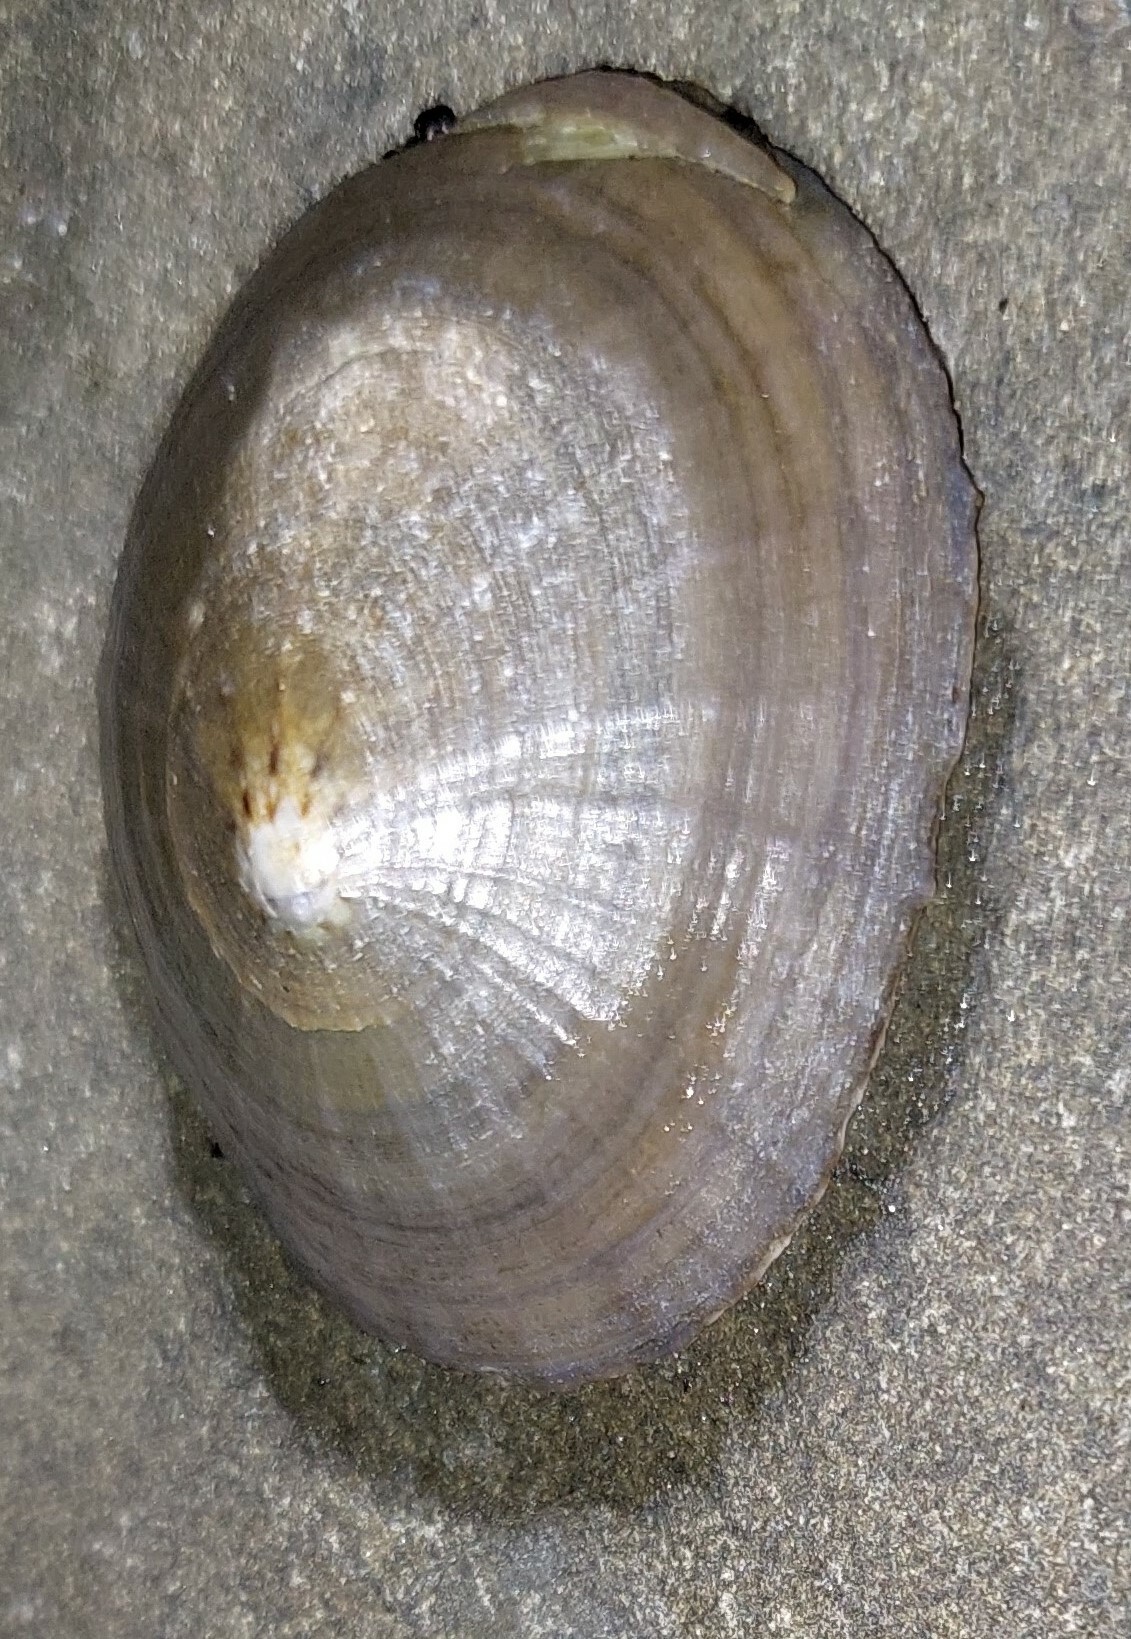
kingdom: Animalia
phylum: Mollusca
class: Gastropoda
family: Nacellidae
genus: Cellana
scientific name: Cellana radians
